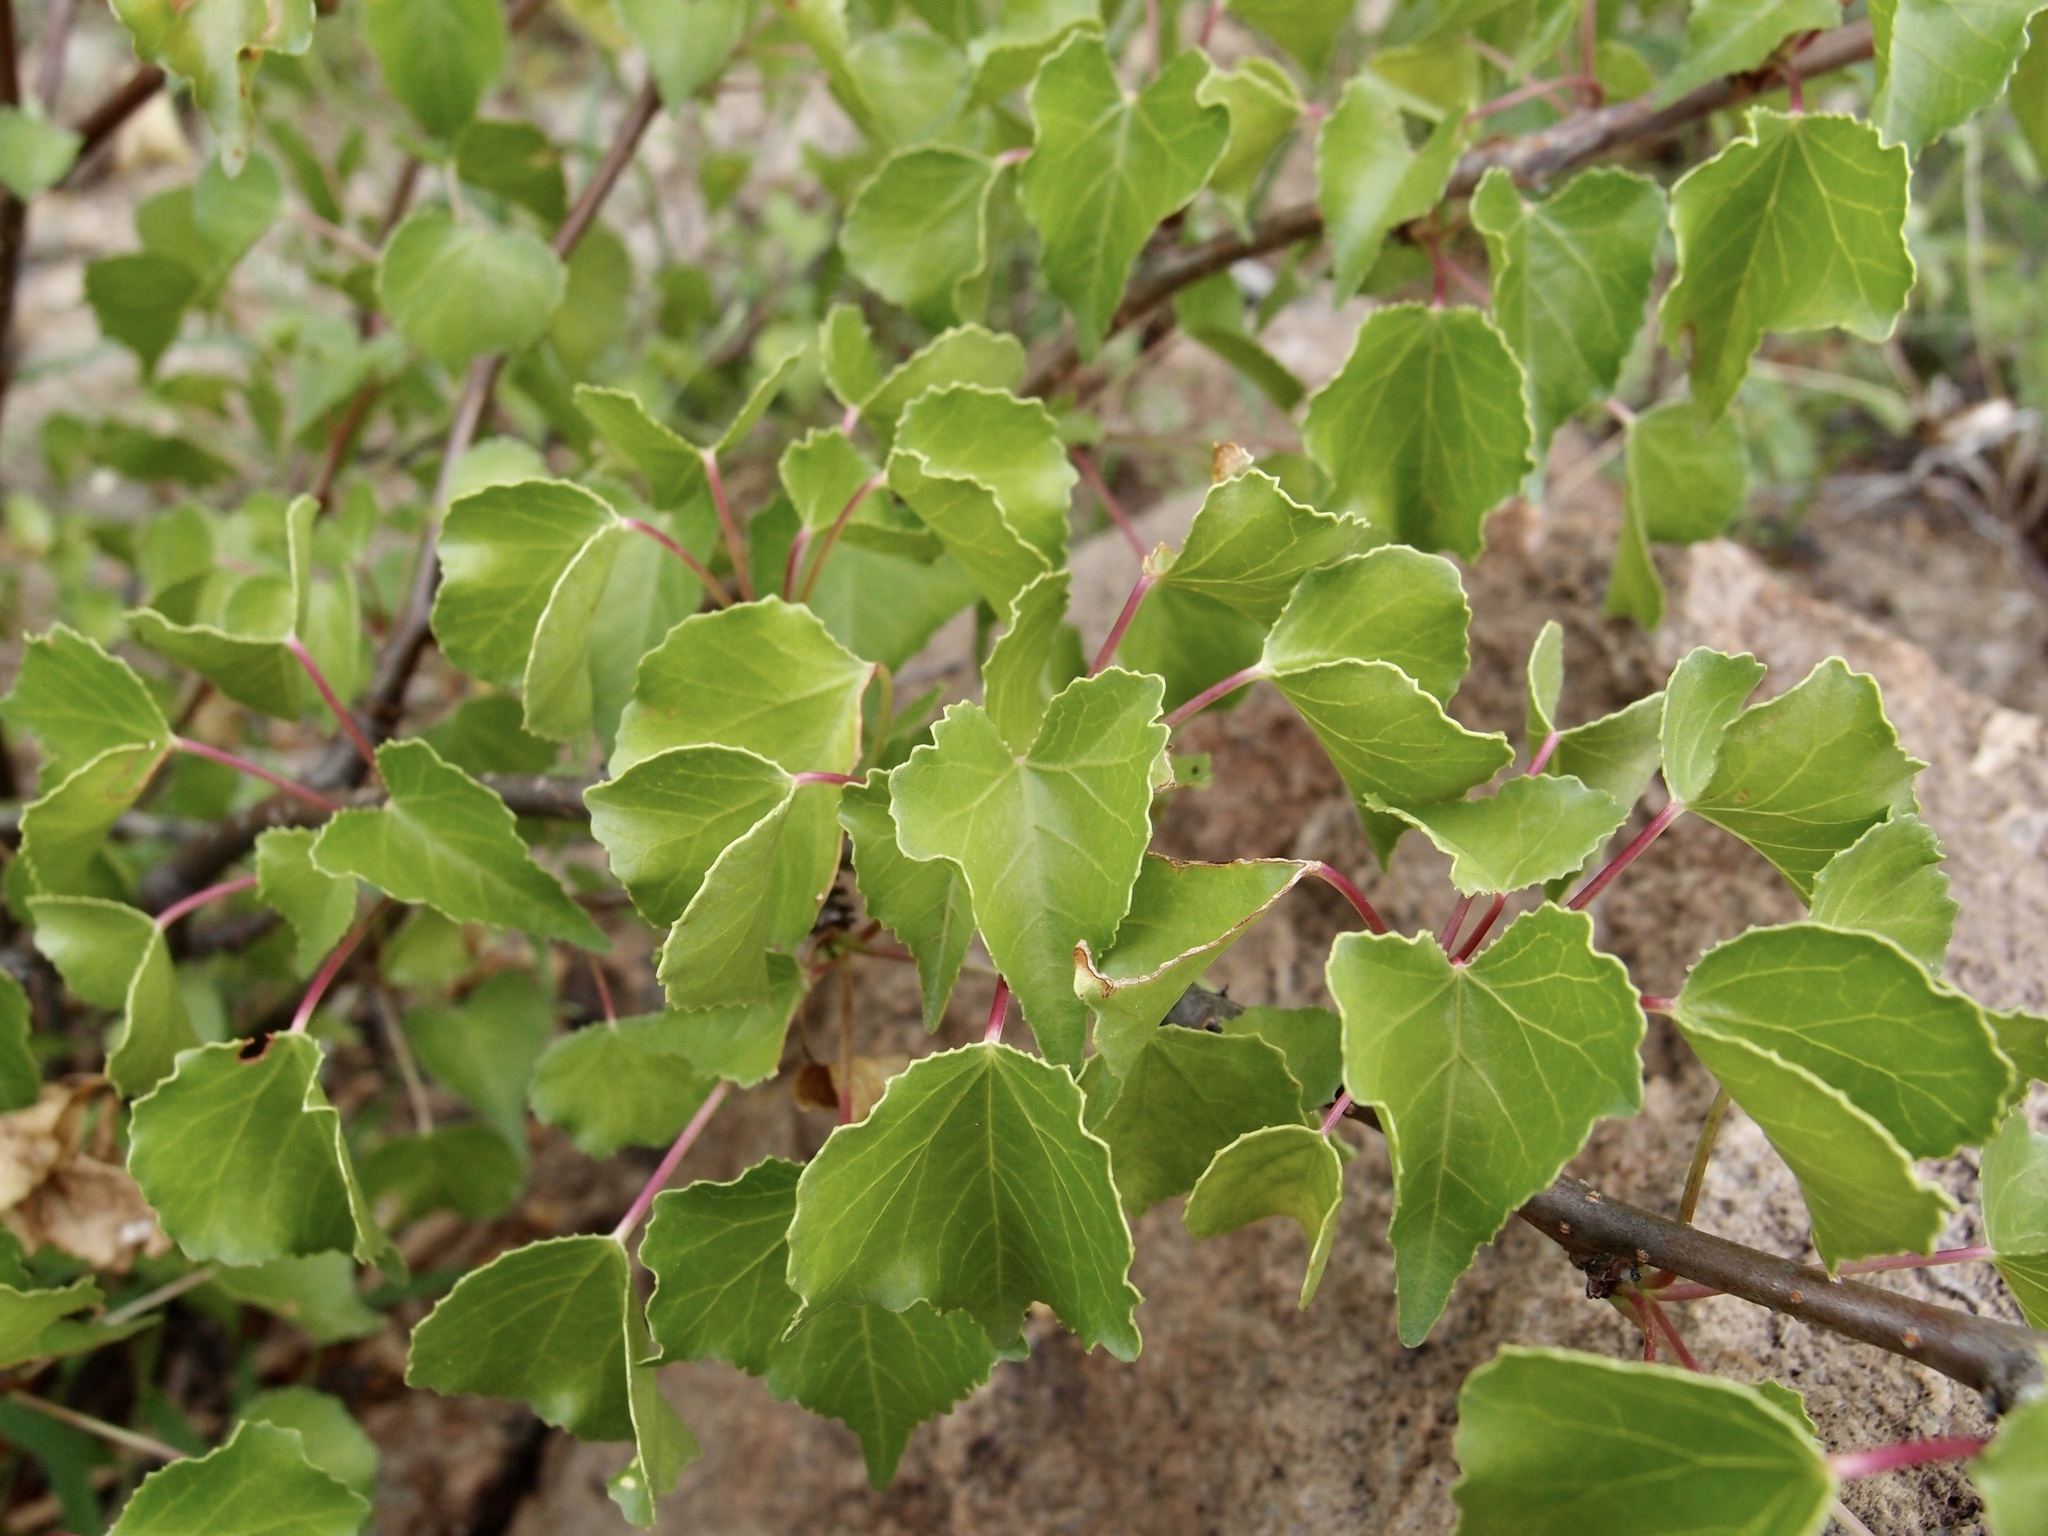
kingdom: Plantae
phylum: Tracheophyta
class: Magnoliopsida
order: Malpighiales
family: Euphorbiaceae
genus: Jatropha
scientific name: Jatropha cardiophylla
